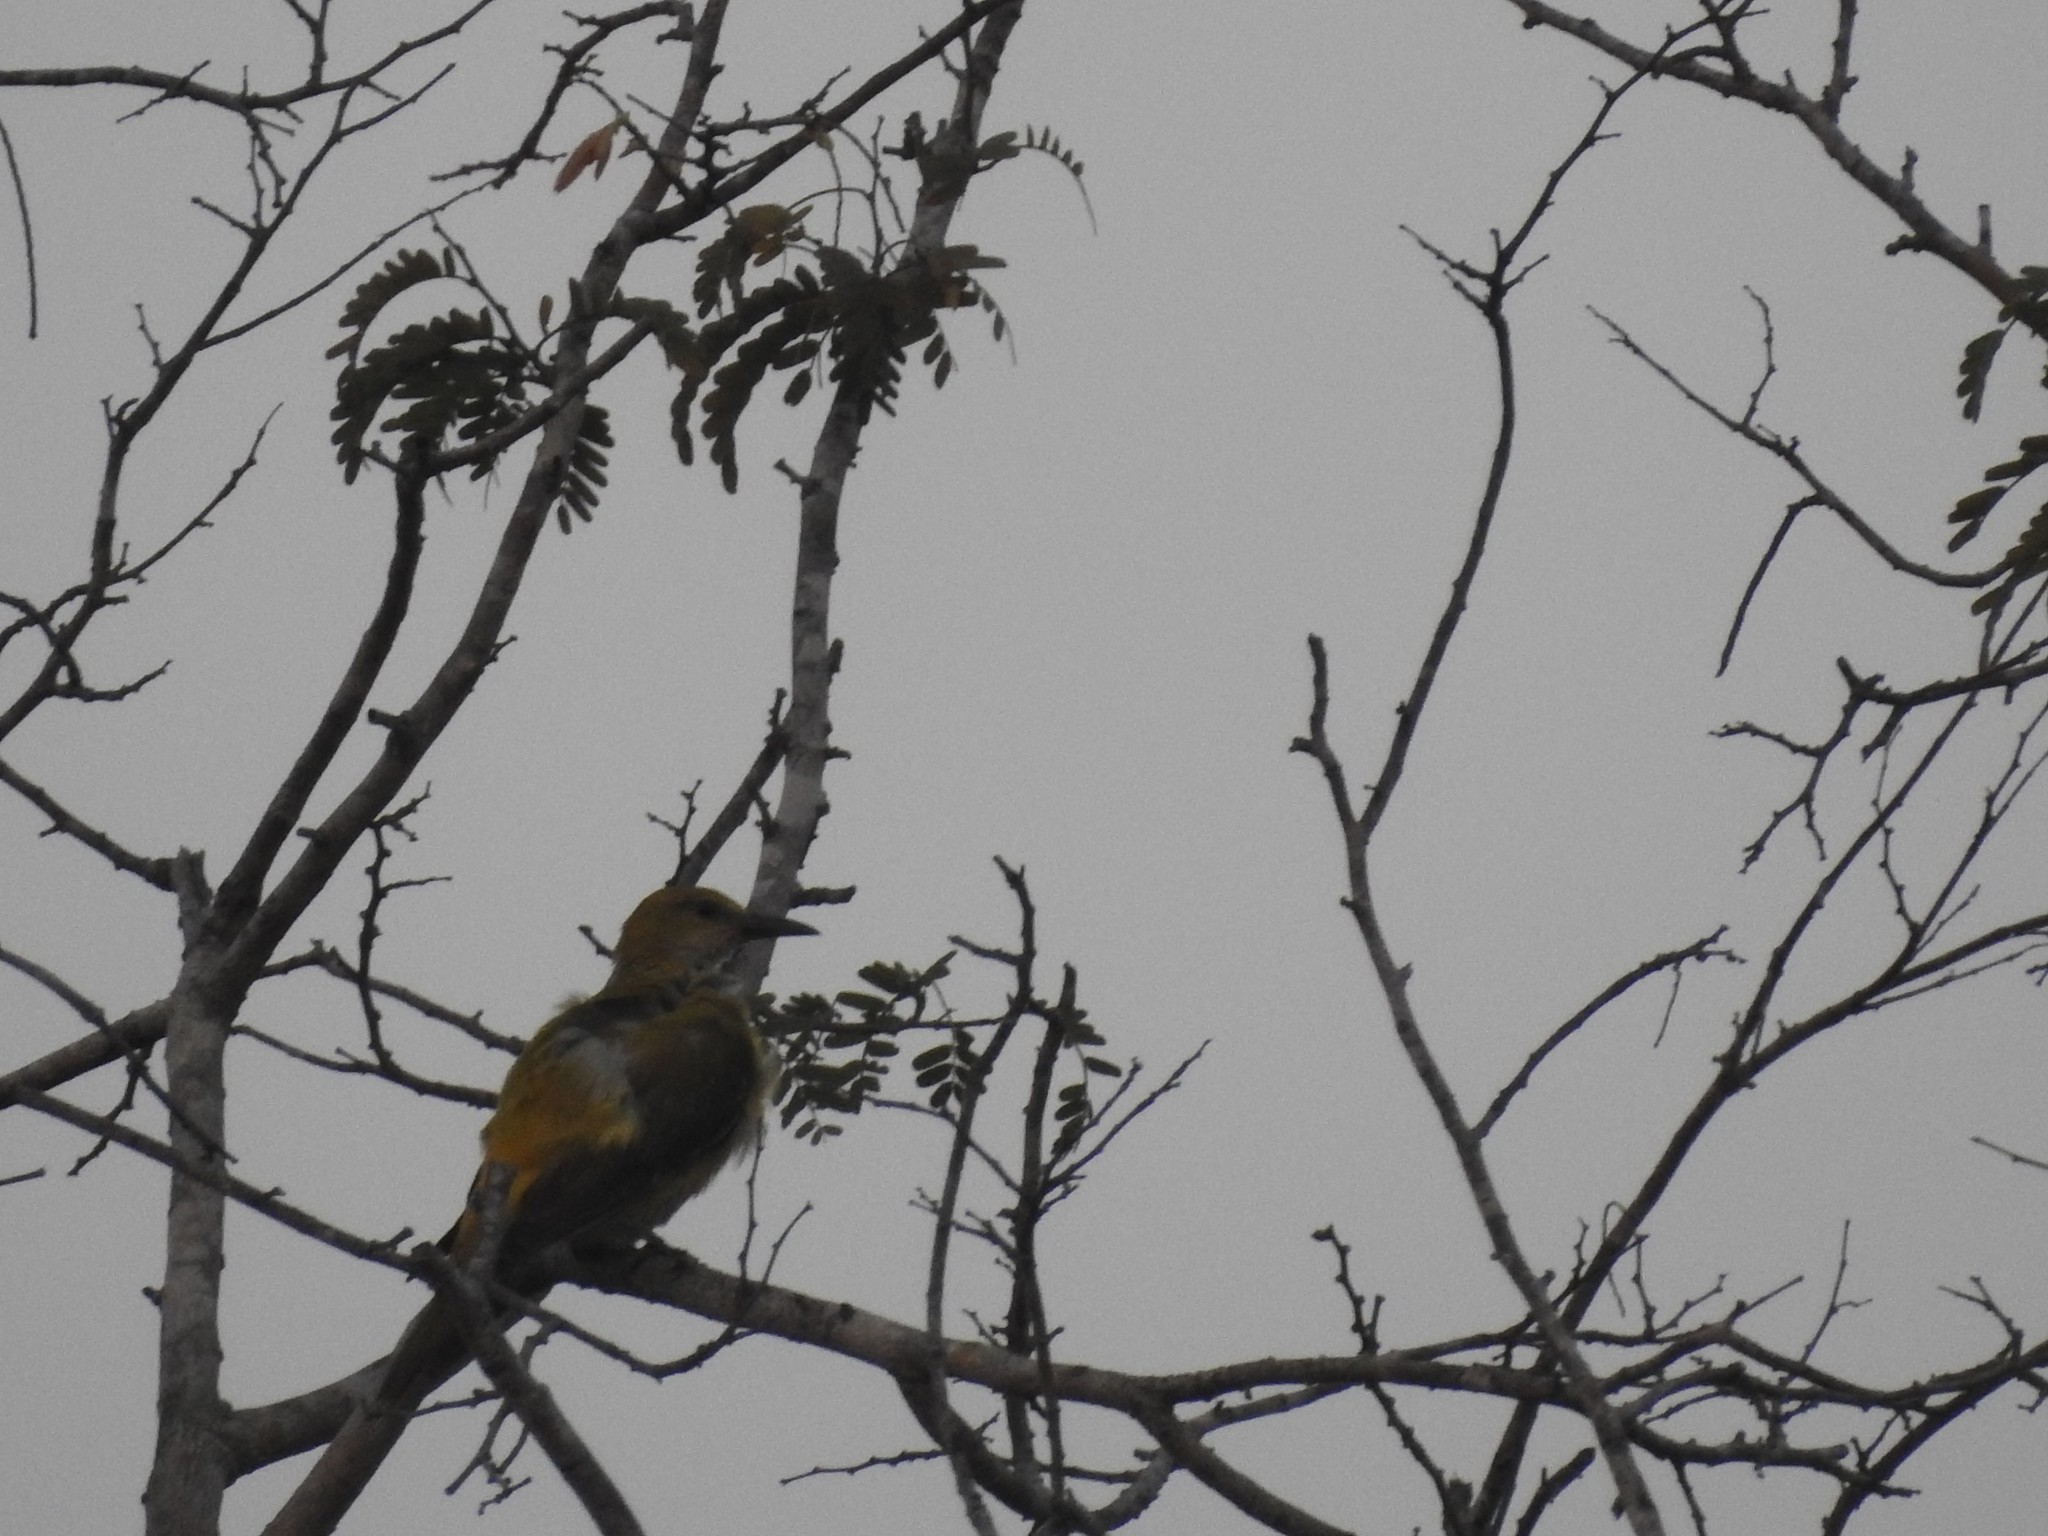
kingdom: Animalia
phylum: Chordata
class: Aves
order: Passeriformes
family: Oriolidae
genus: Oriolus
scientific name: Oriolus kundoo
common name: Indian golden oriole
